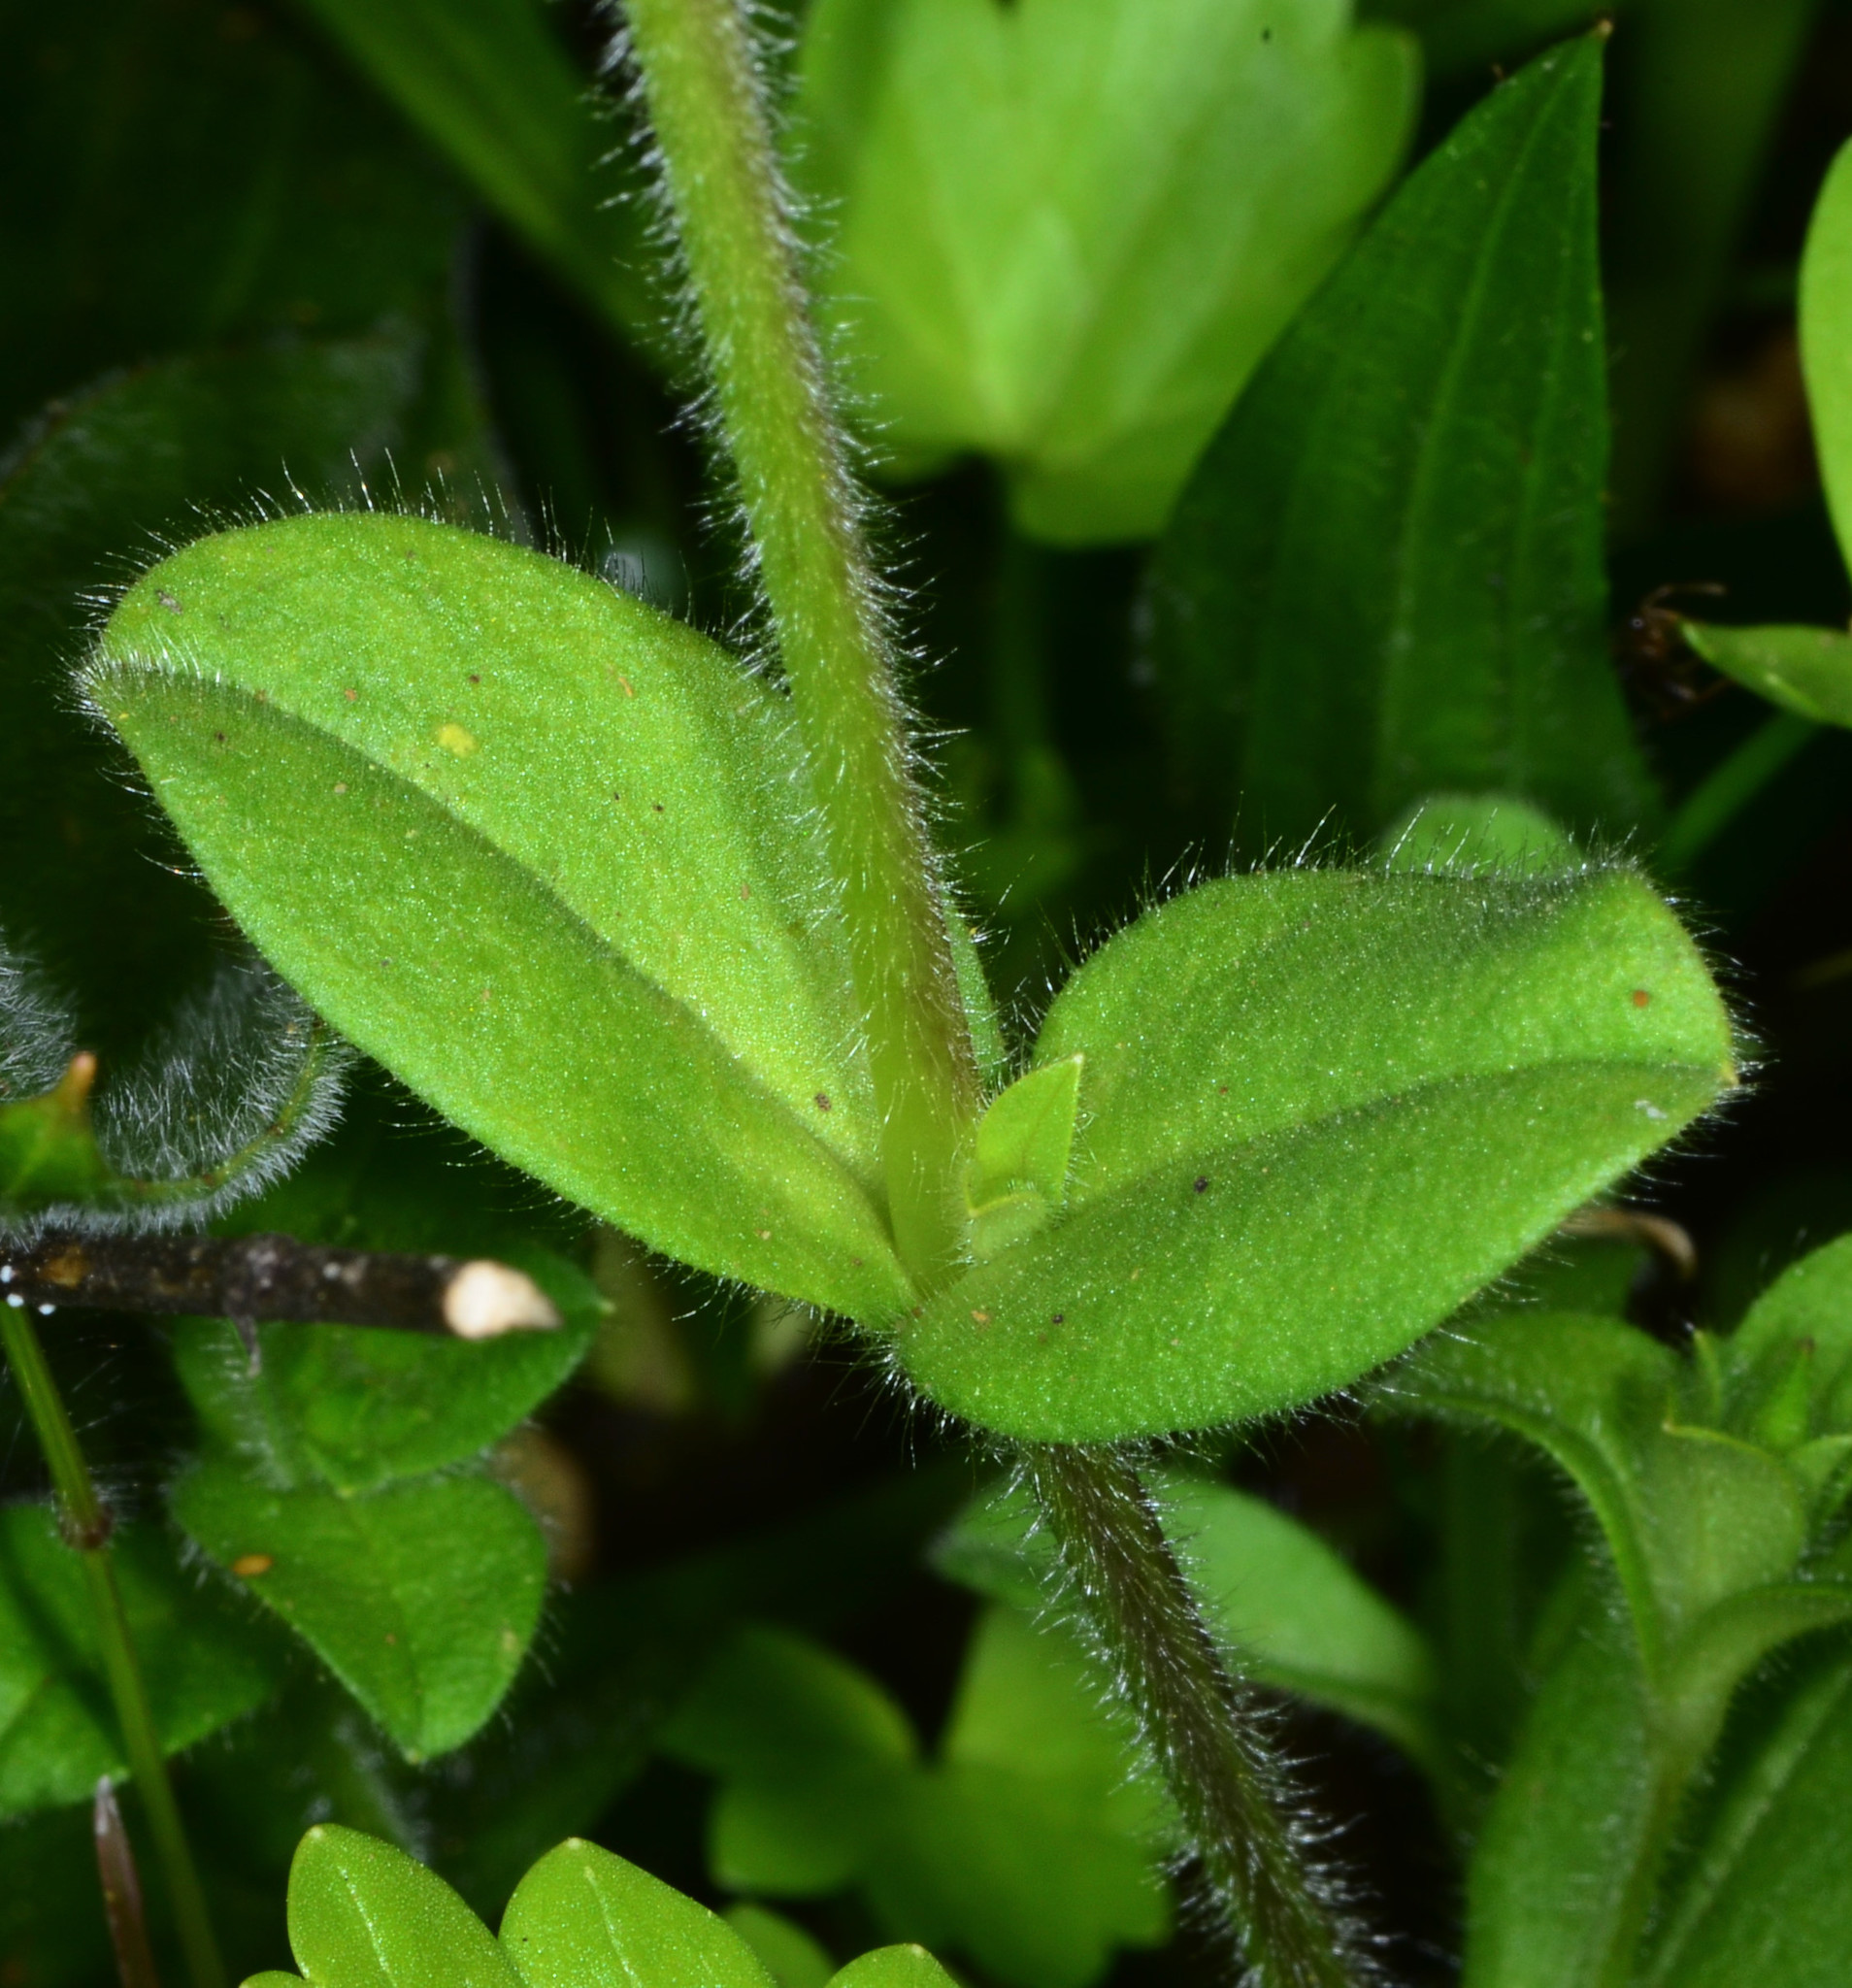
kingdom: Plantae
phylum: Tracheophyta
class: Magnoliopsida
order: Caryophyllales
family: Caryophyllaceae
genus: Cerastium
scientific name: Cerastium glomeratum
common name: Sticky chickweed
